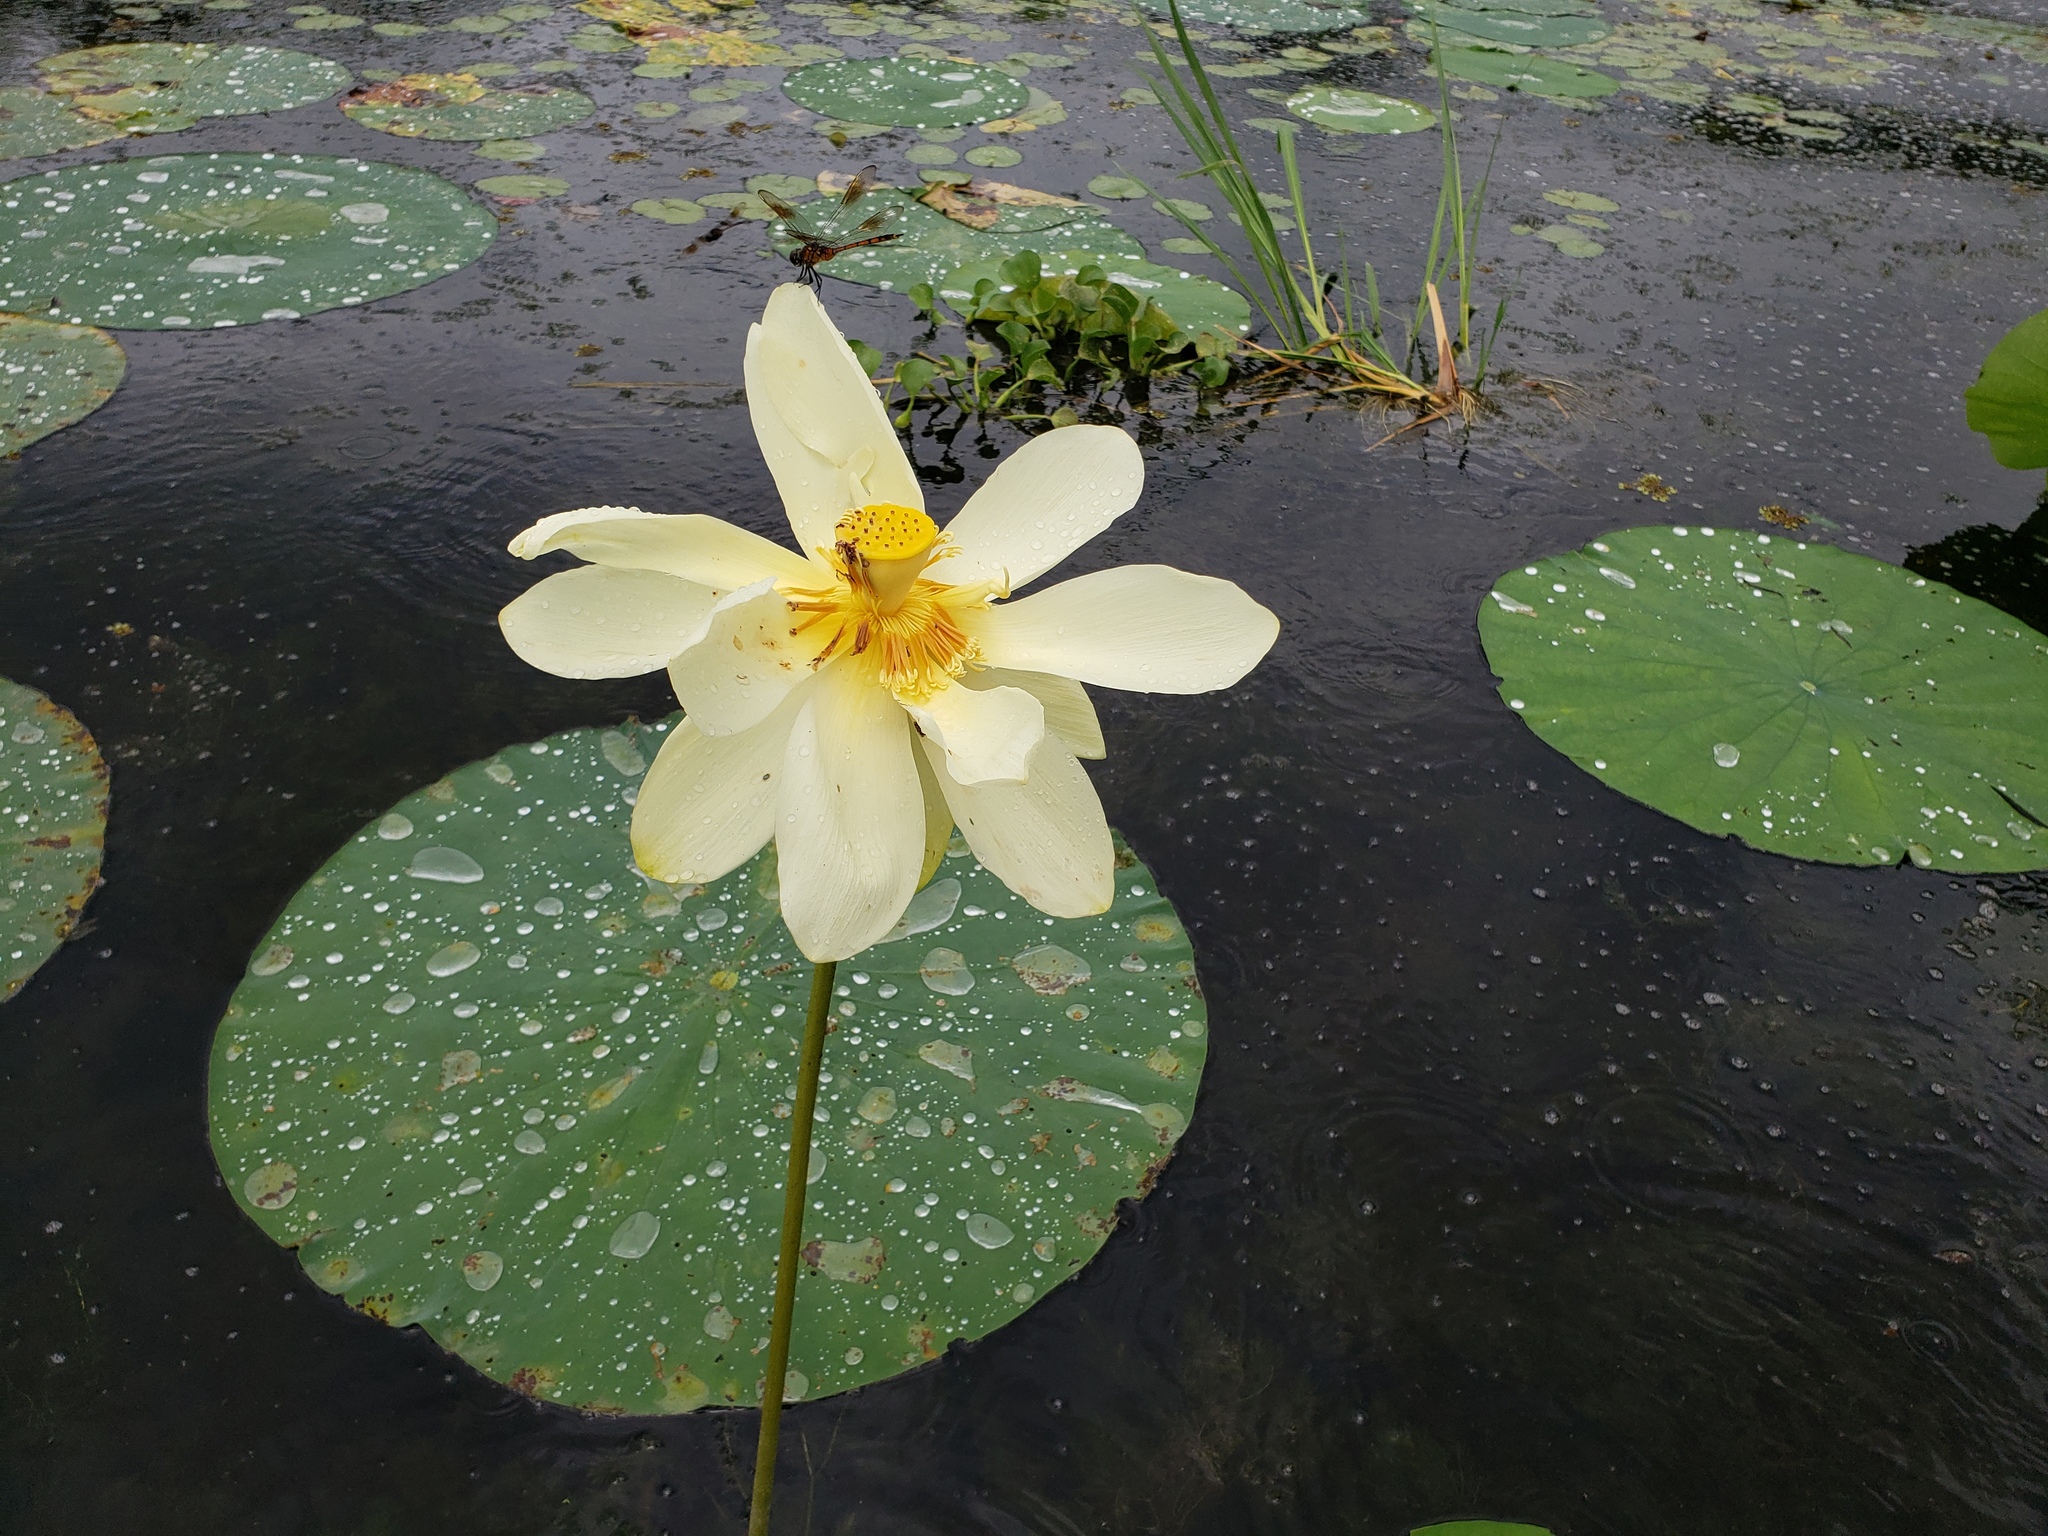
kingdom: Plantae
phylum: Tracheophyta
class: Magnoliopsida
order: Proteales
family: Nelumbonaceae
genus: Nelumbo
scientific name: Nelumbo lutea
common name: American lotus
